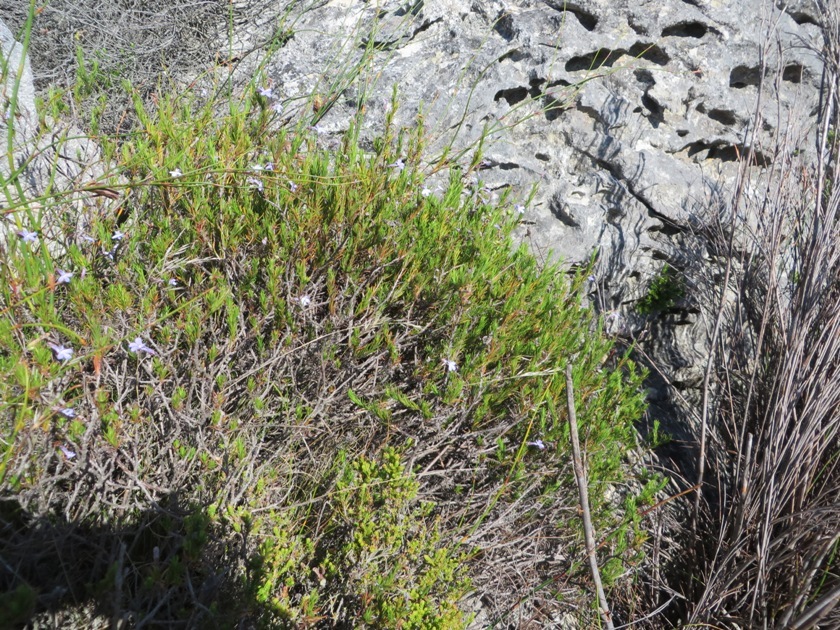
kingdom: Plantae
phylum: Tracheophyta
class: Magnoliopsida
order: Asterales
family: Campanulaceae
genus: Lobelia
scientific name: Lobelia pinifolia
